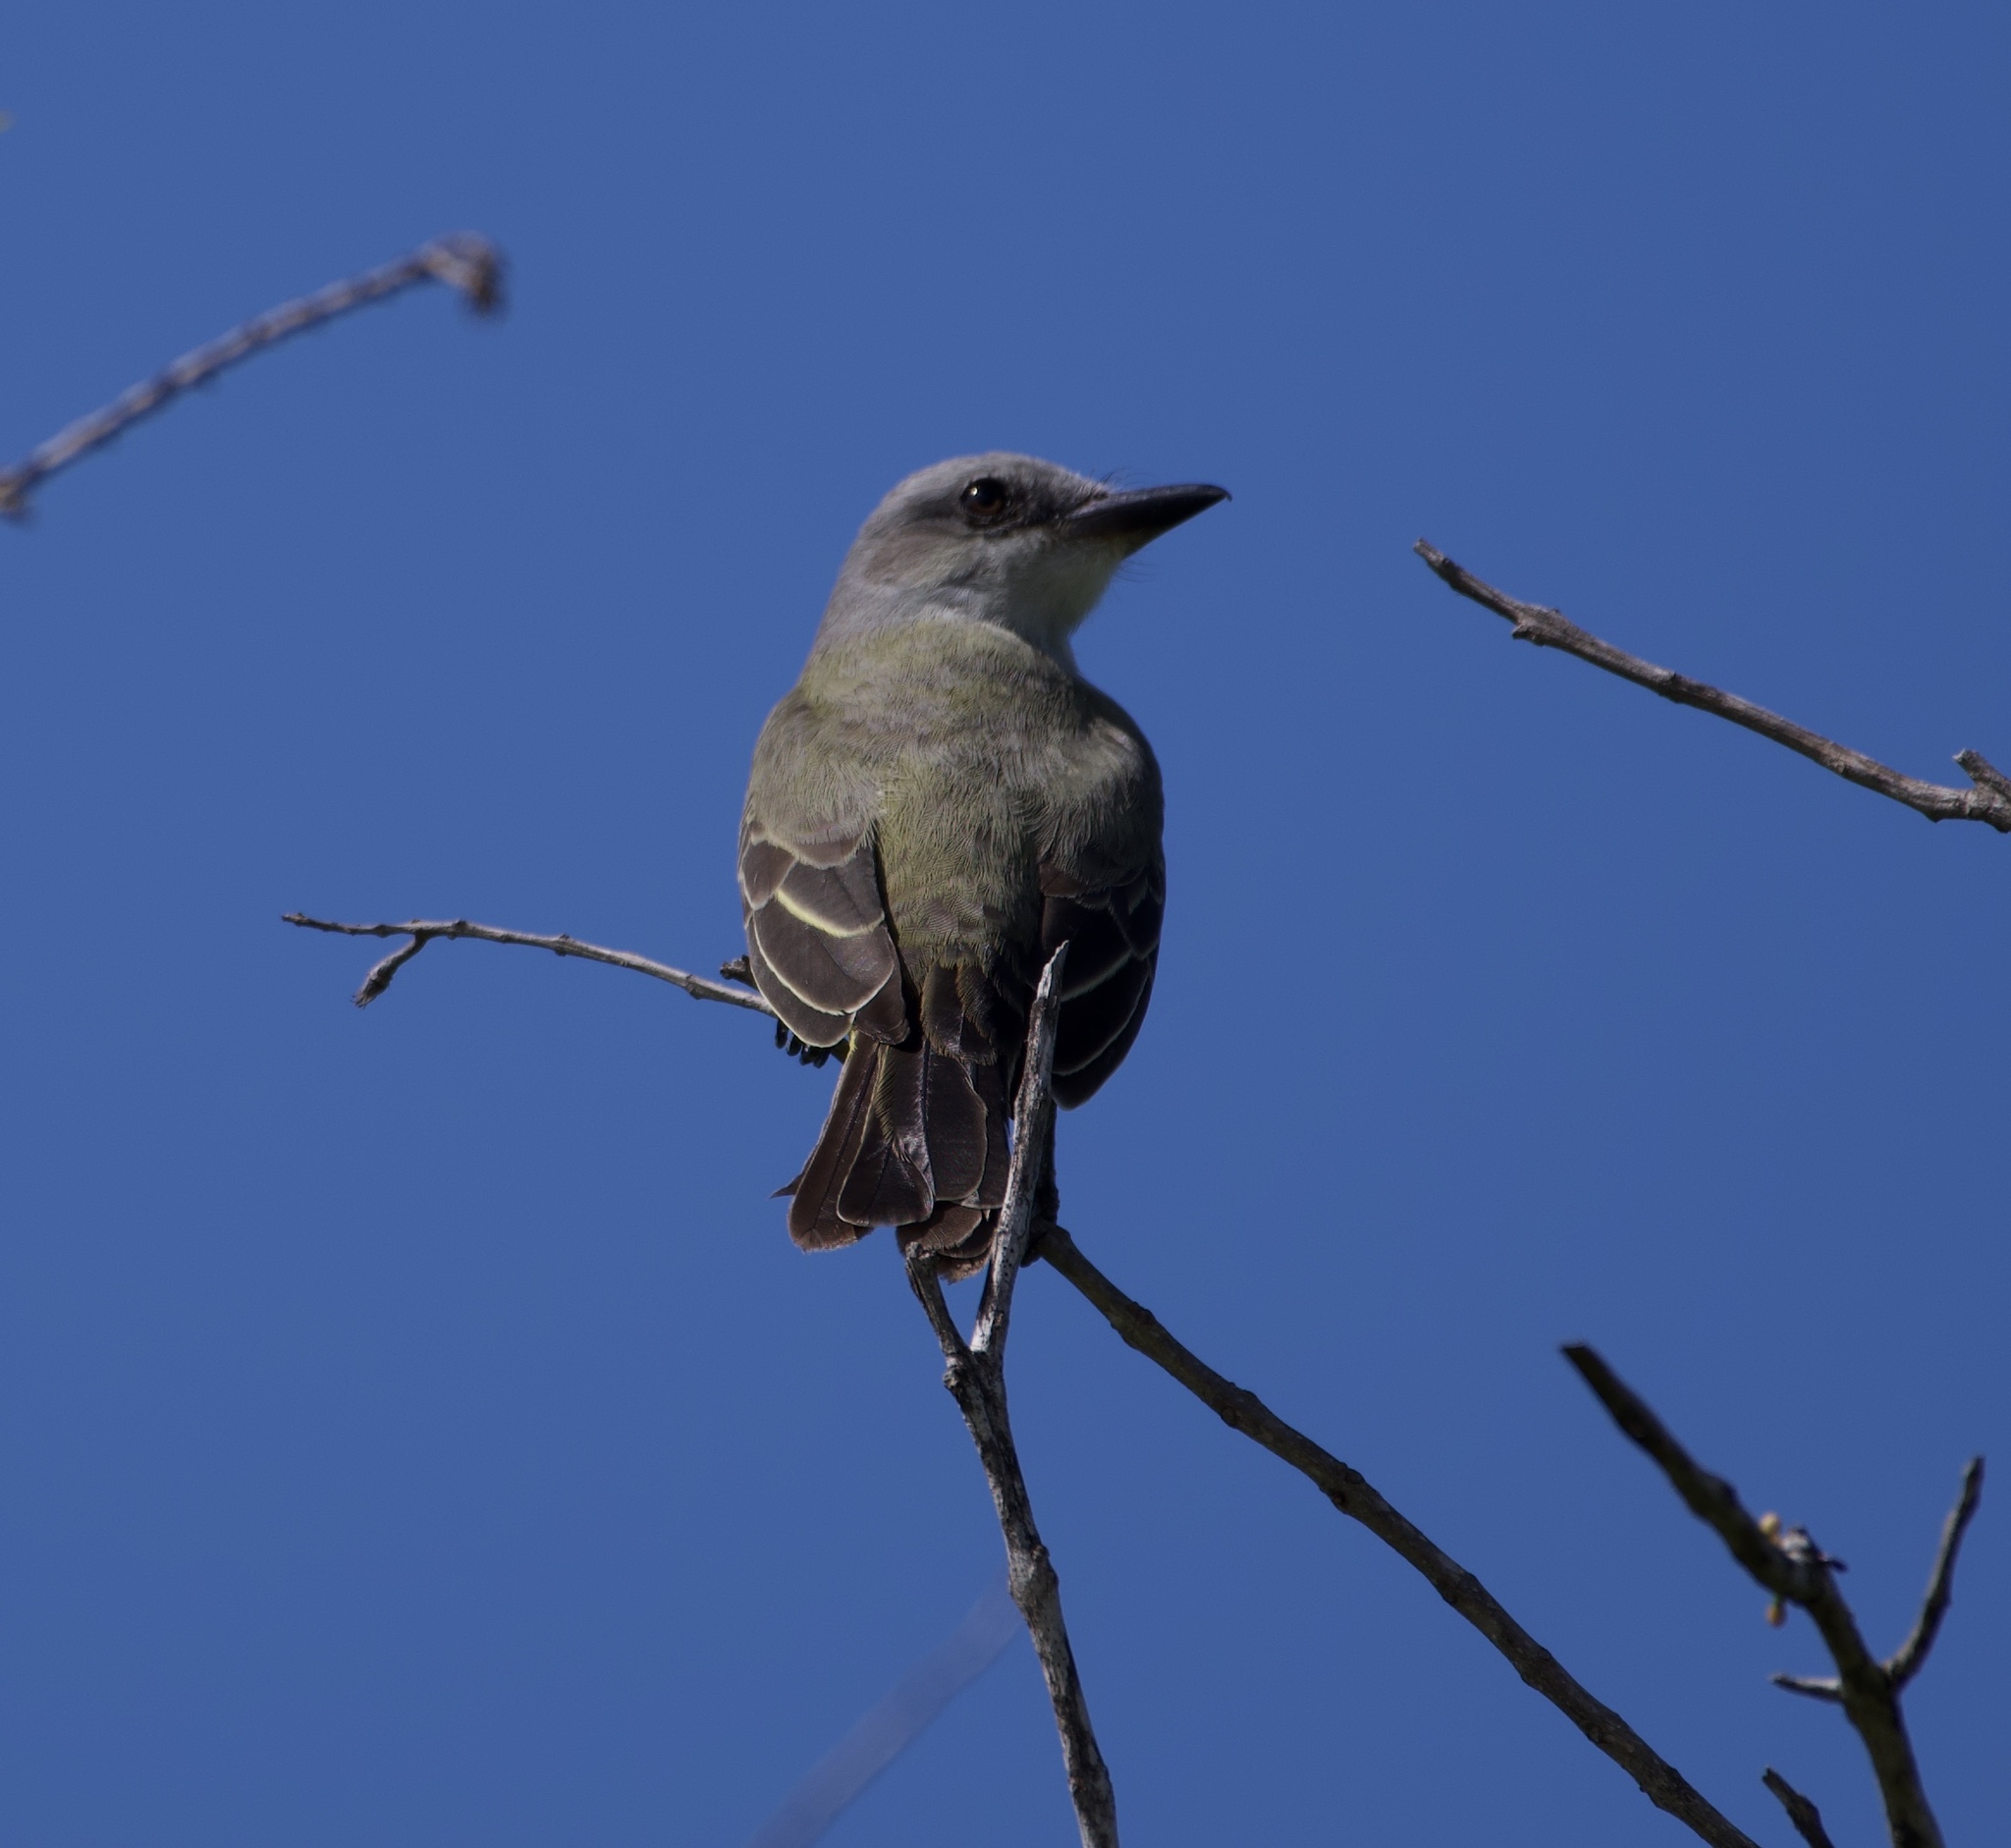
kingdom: Animalia
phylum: Chordata
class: Aves
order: Passeriformes
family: Tyrannidae
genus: Tyrannus
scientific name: Tyrannus melancholicus
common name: Tropical kingbird
